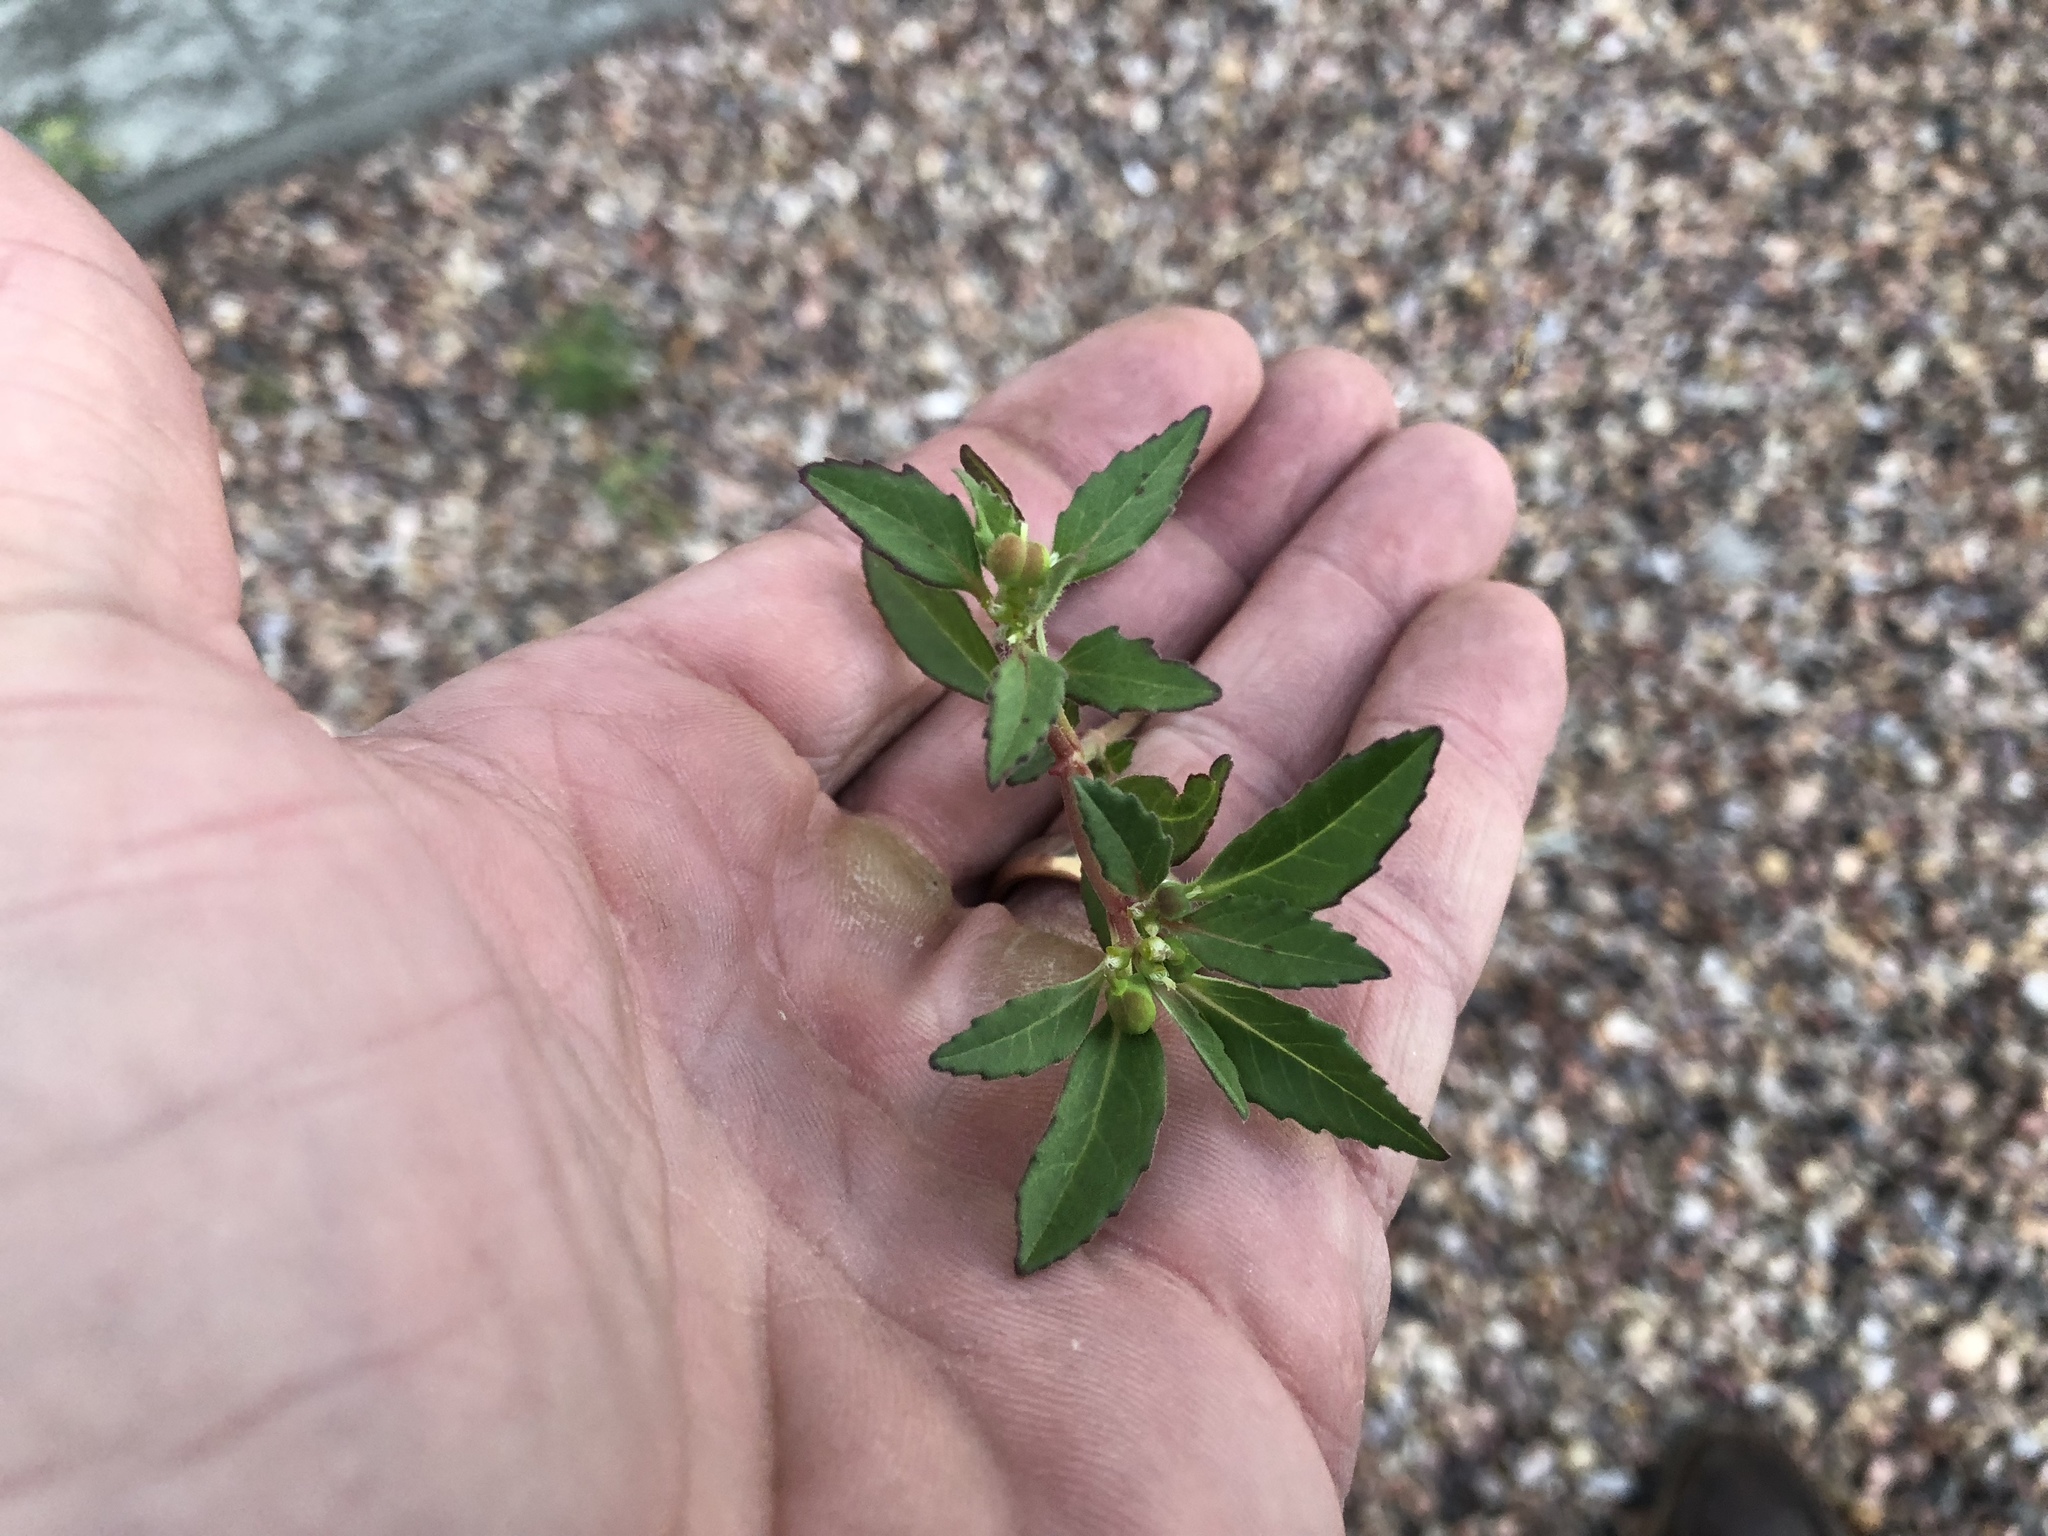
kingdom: Plantae
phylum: Tracheophyta
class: Magnoliopsida
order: Malpighiales
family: Euphorbiaceae
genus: Euphorbia
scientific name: Euphorbia davidii
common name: David's spurge
